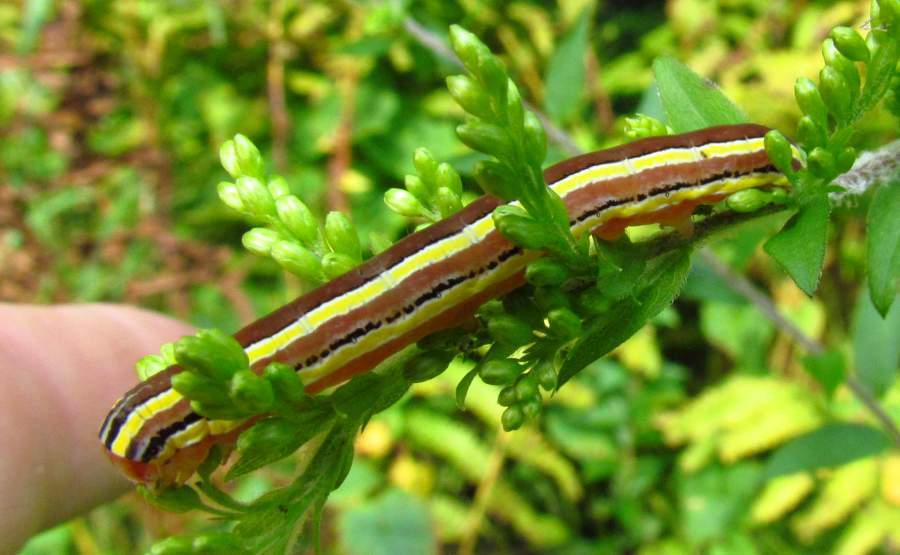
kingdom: Animalia
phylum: Arthropoda
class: Insecta
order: Lepidoptera
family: Noctuidae
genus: Trichordestra
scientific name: Trichordestra legitima
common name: Striped garden caterpillar
